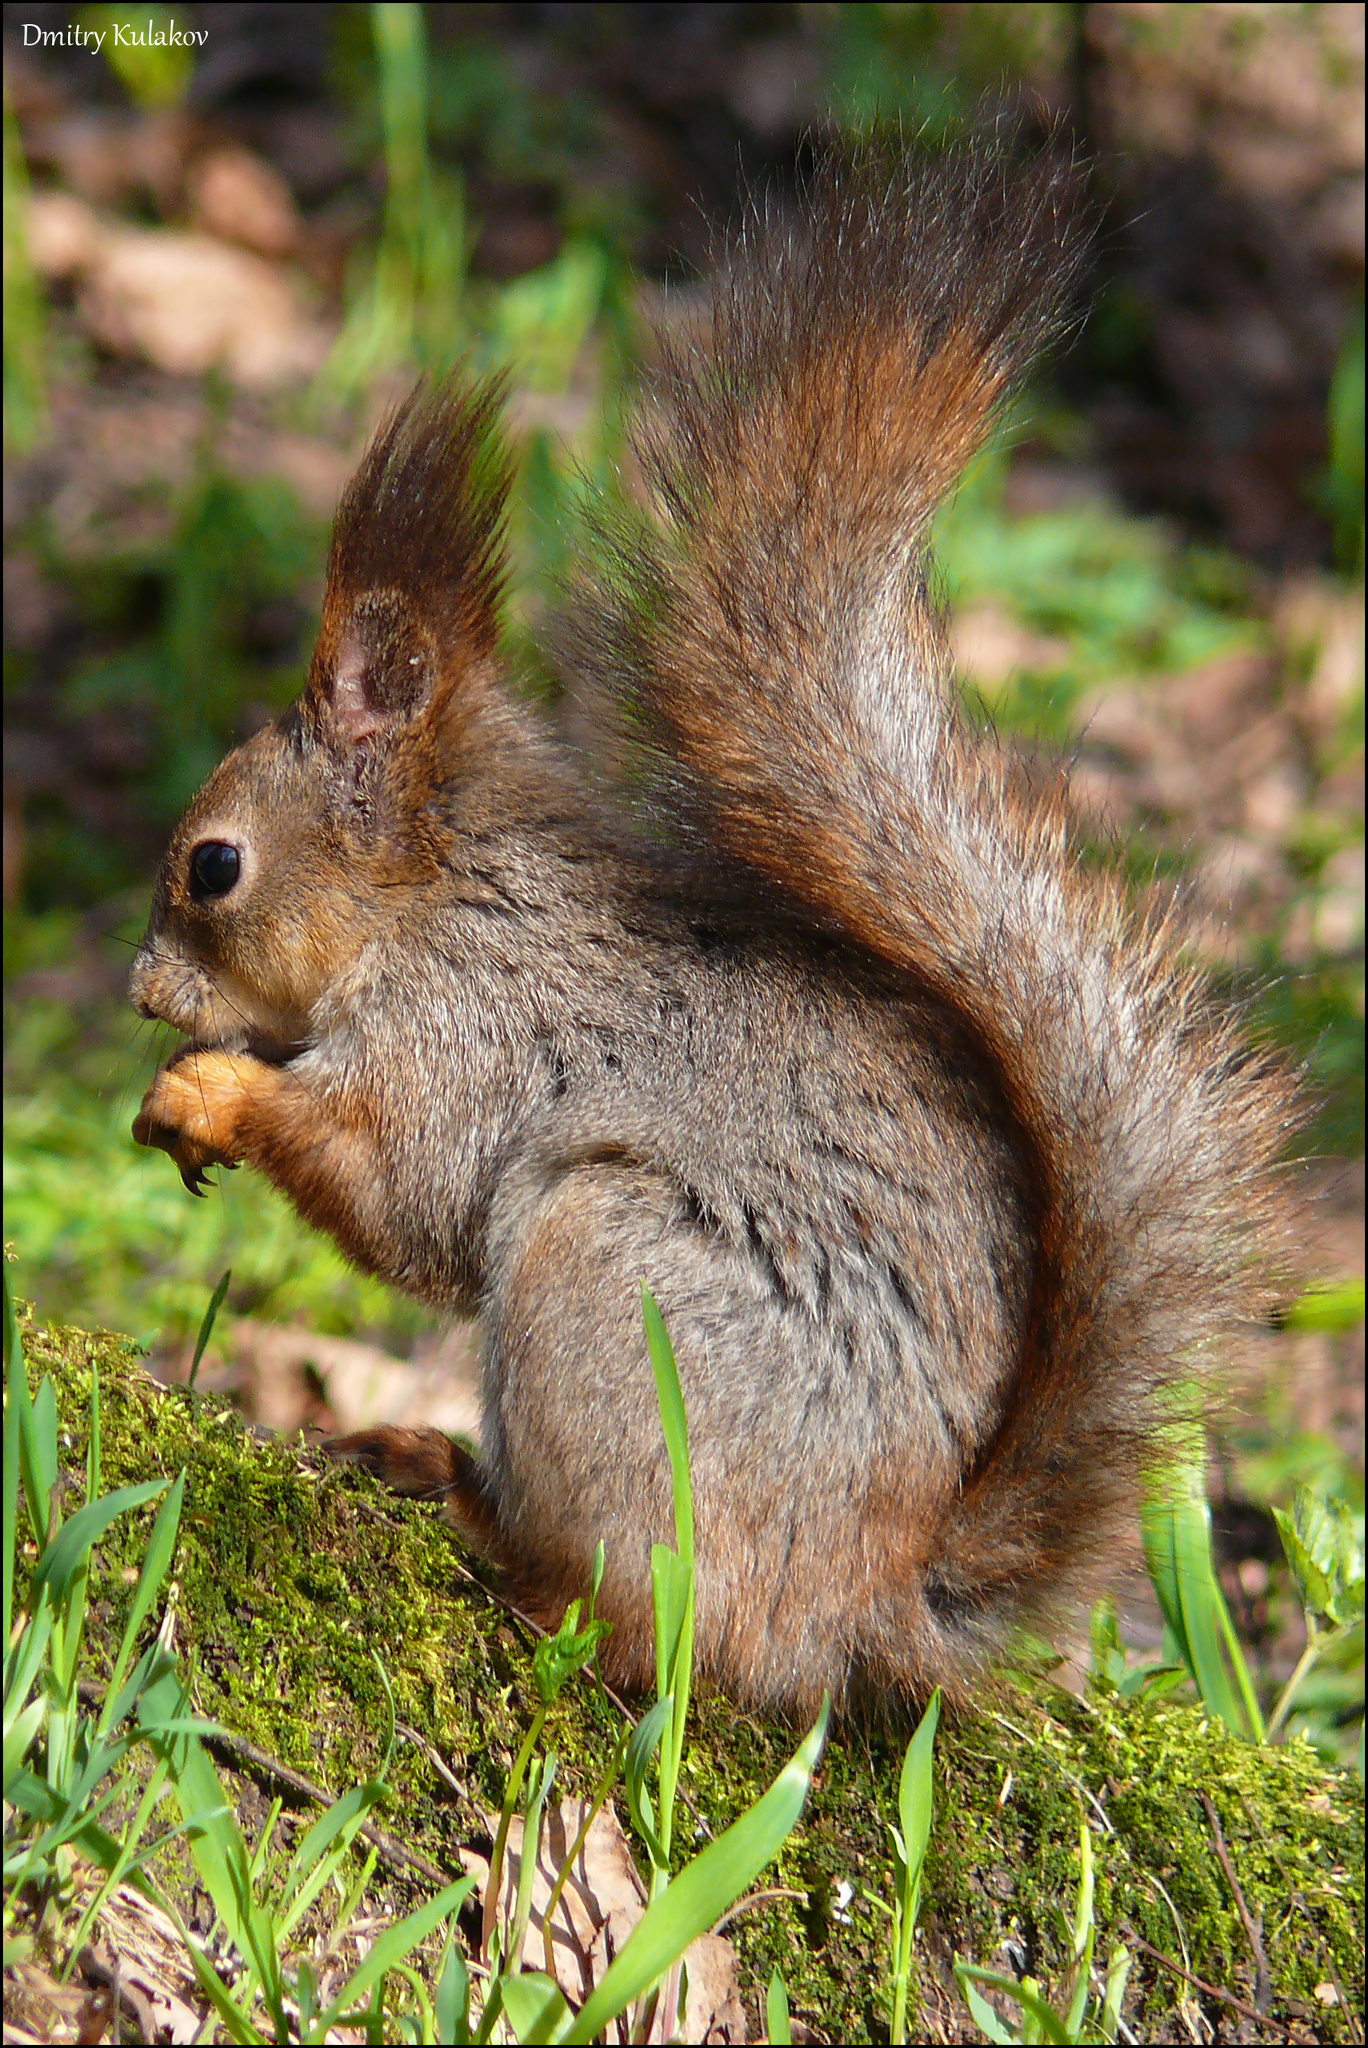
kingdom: Animalia
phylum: Chordata
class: Mammalia
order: Rodentia
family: Sciuridae
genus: Sciurus
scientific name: Sciurus vulgaris
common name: Eurasian red squirrel
